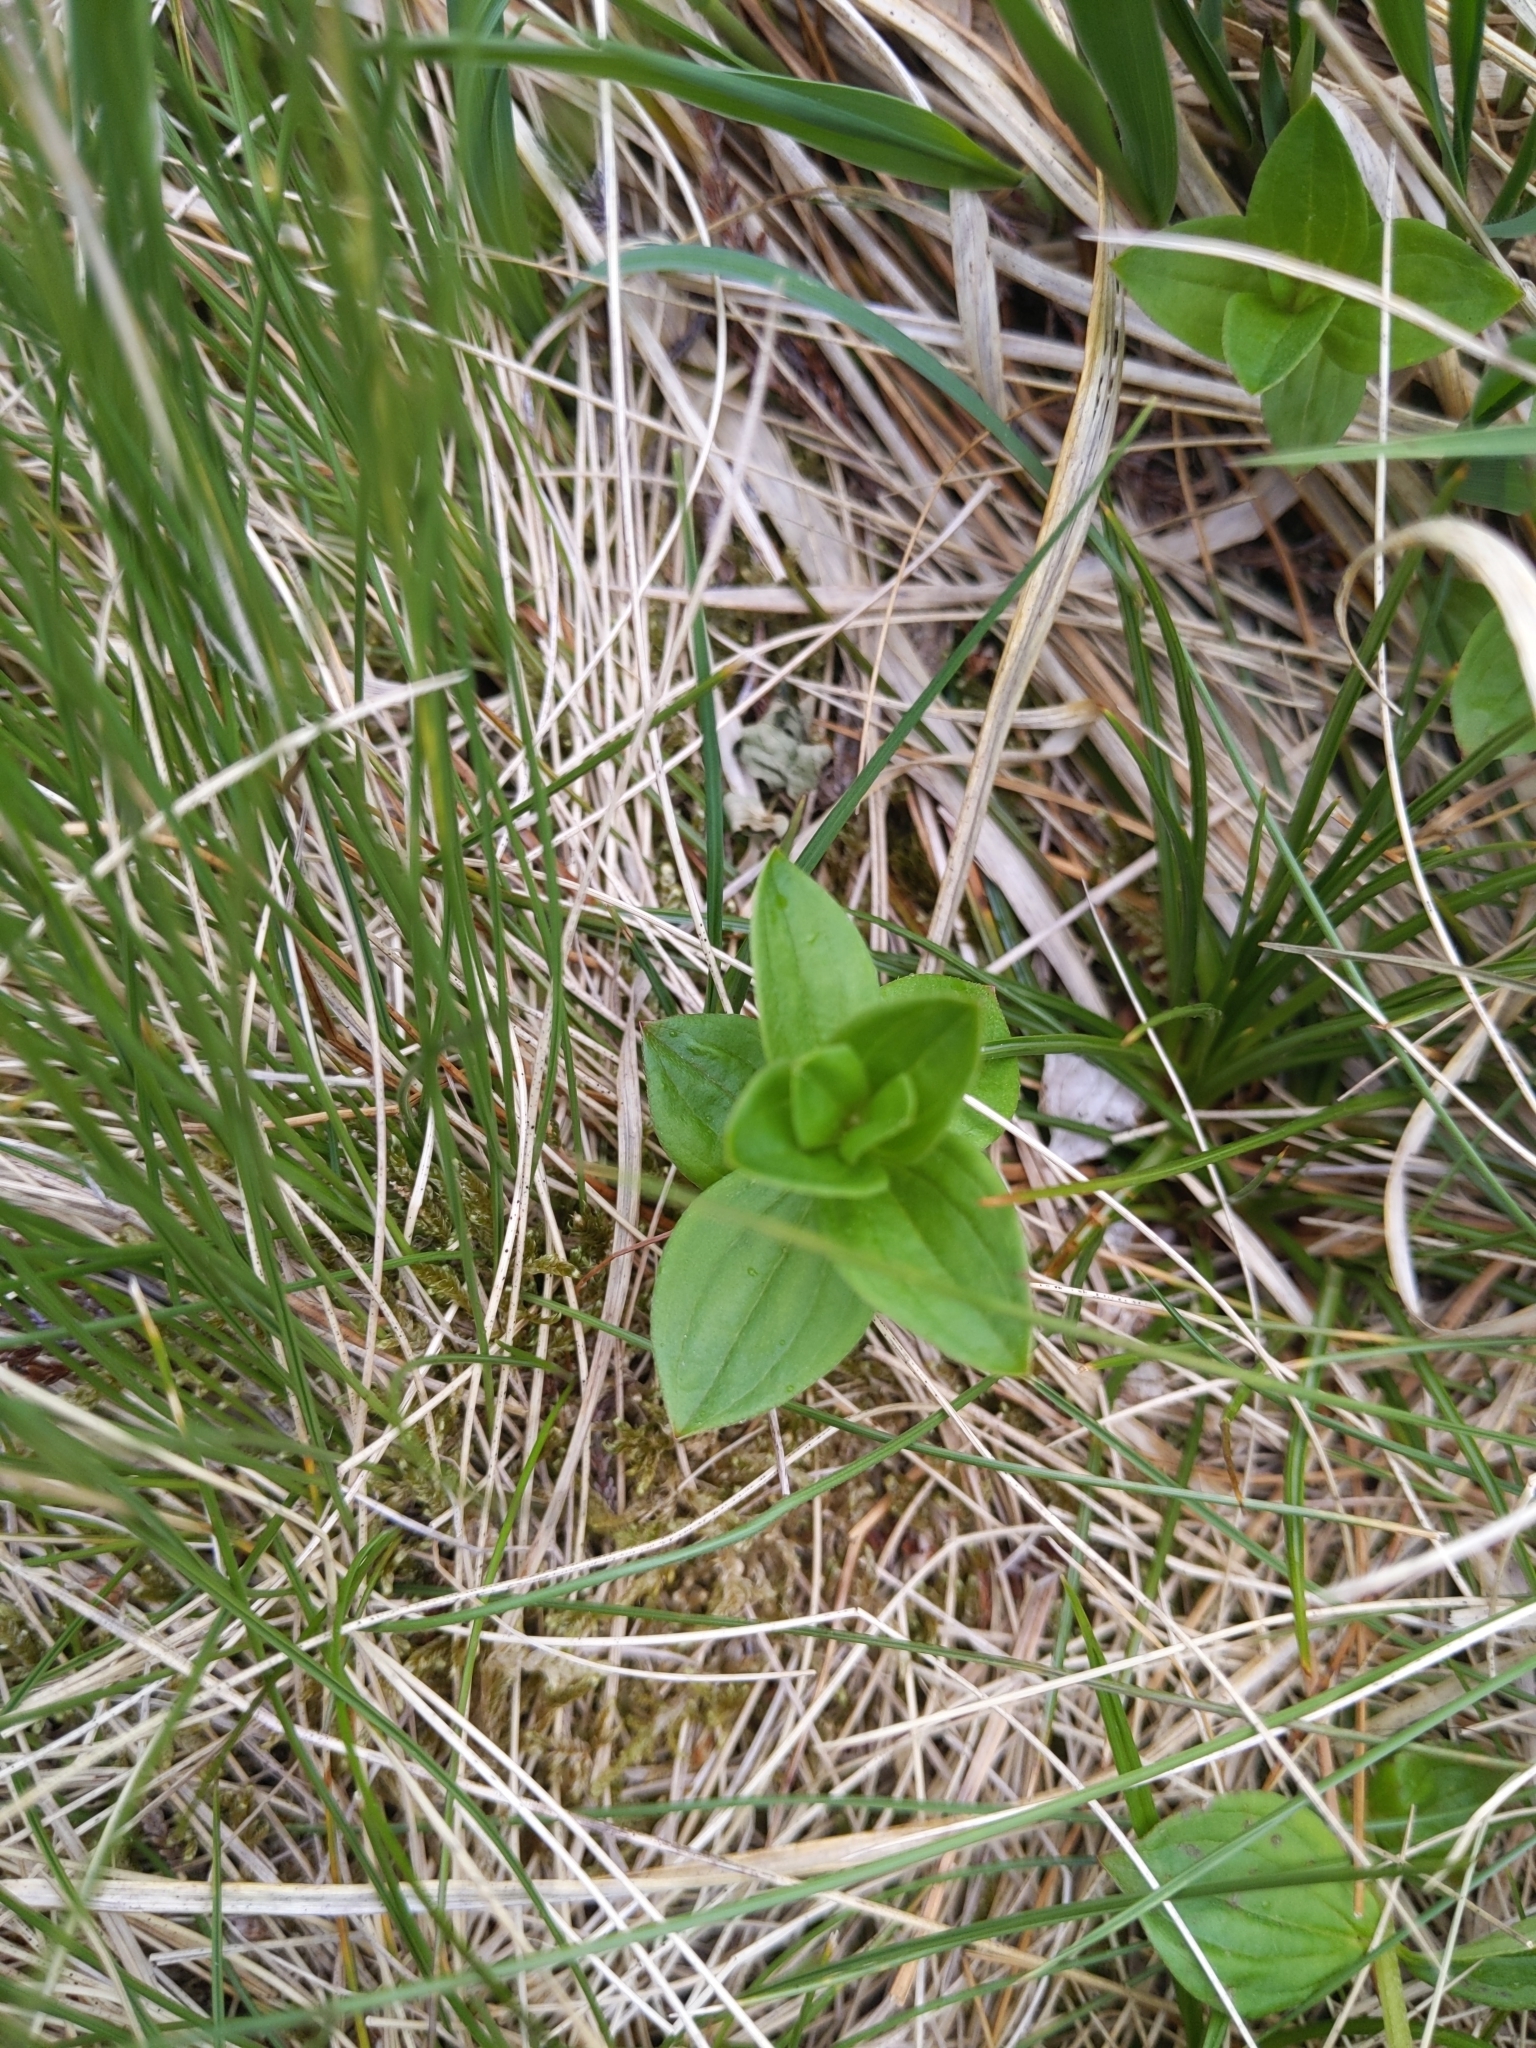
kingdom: Plantae
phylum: Tracheophyta
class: Magnoliopsida
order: Cornales
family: Cornaceae
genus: Cornus
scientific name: Cornus suecica
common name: Dwarf cornel
